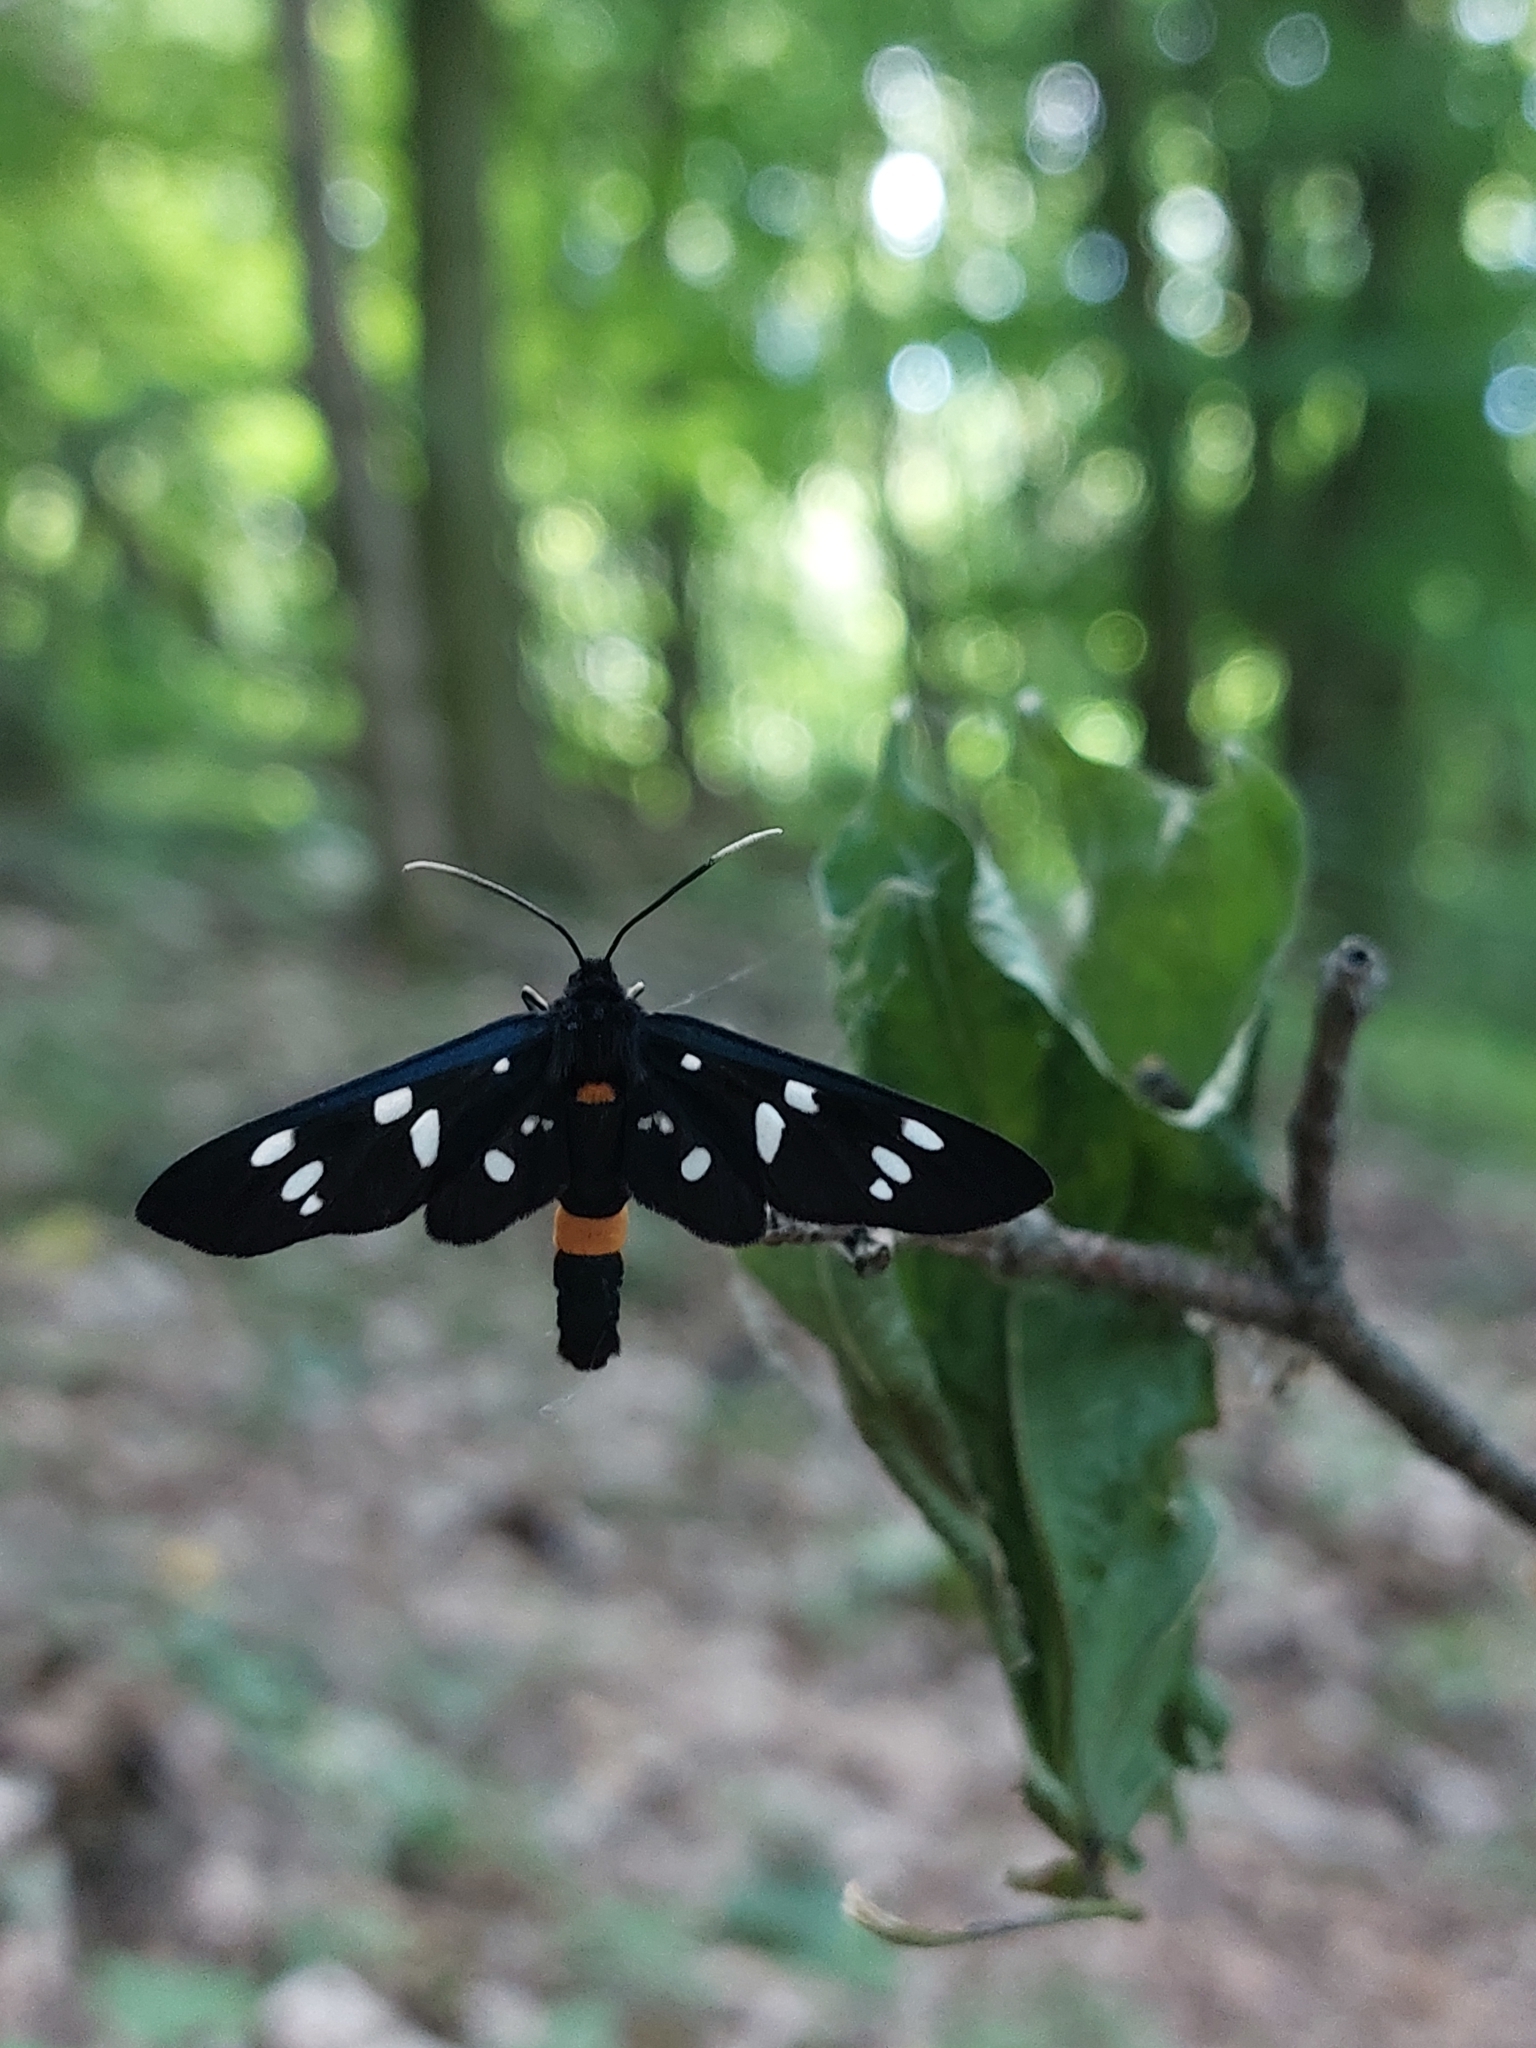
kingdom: Animalia
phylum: Arthropoda
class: Insecta
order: Lepidoptera
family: Erebidae
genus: Amata
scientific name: Amata phegea
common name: Nine-spotted
